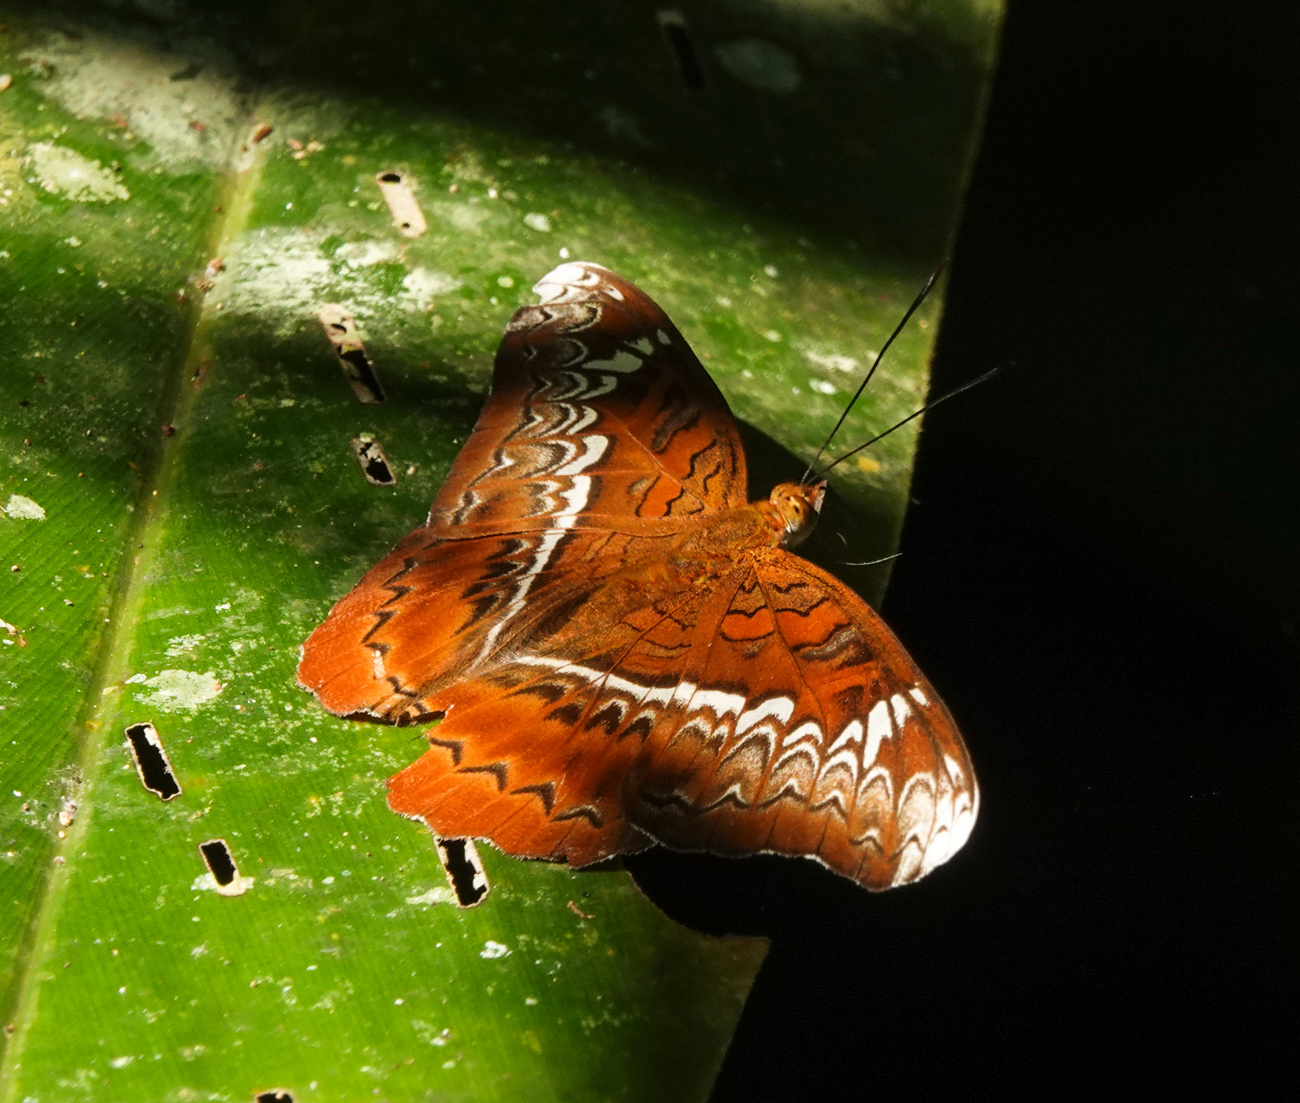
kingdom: Animalia
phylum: Arthropoda
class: Insecta
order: Lepidoptera
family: Nymphalidae
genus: Lebadea
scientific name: Lebadea martha
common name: Knight
